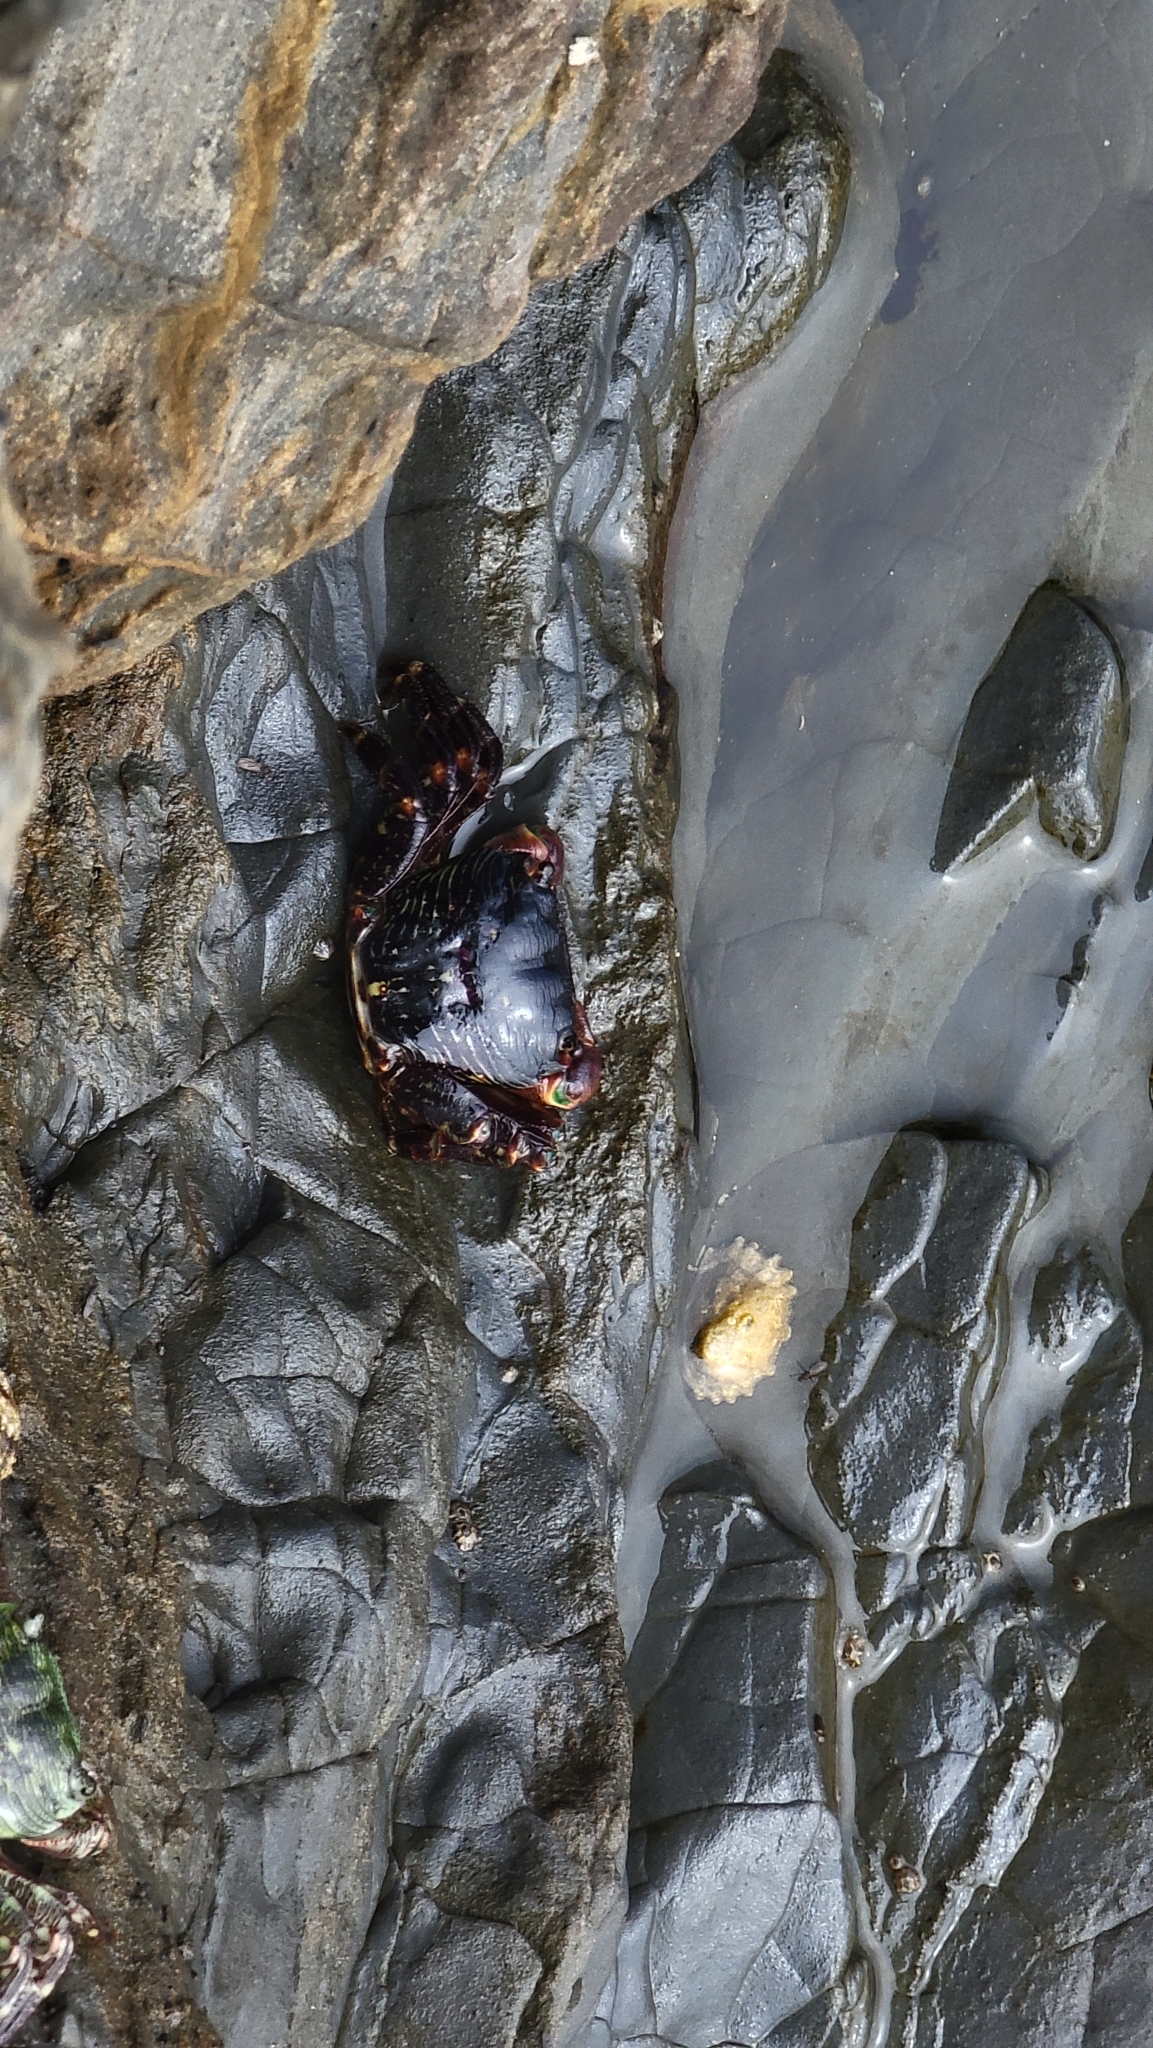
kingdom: Animalia
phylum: Arthropoda
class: Malacostraca
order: Decapoda
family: Grapsidae
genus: Pachygrapsus
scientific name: Pachygrapsus crassipes
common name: Striped shore crab
